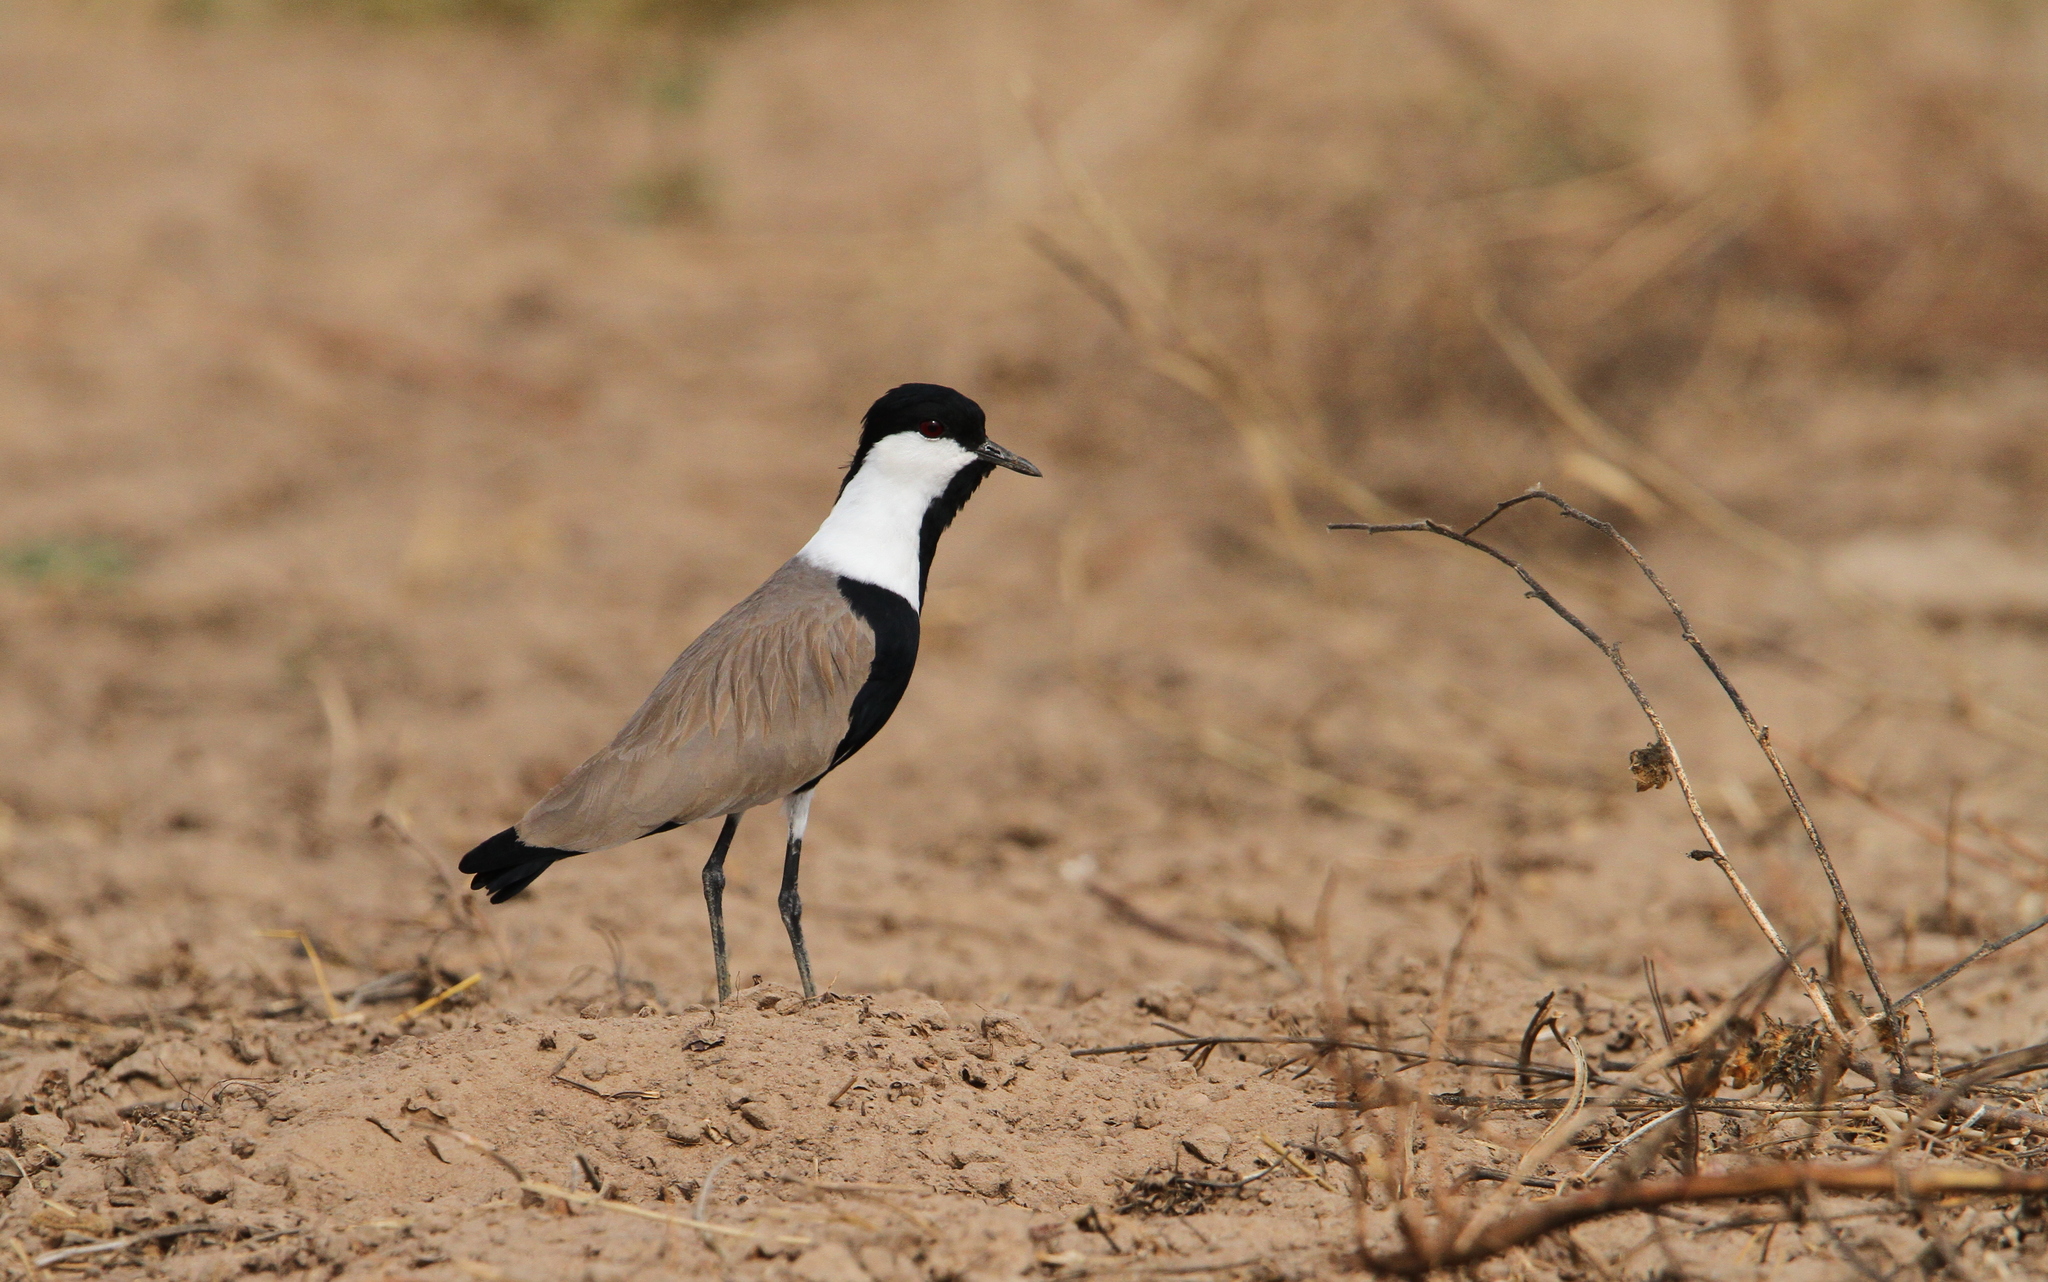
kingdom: Animalia
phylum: Chordata
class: Aves
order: Charadriiformes
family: Charadriidae
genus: Vanellus
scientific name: Vanellus spinosus
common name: Spur-winged lapwing
